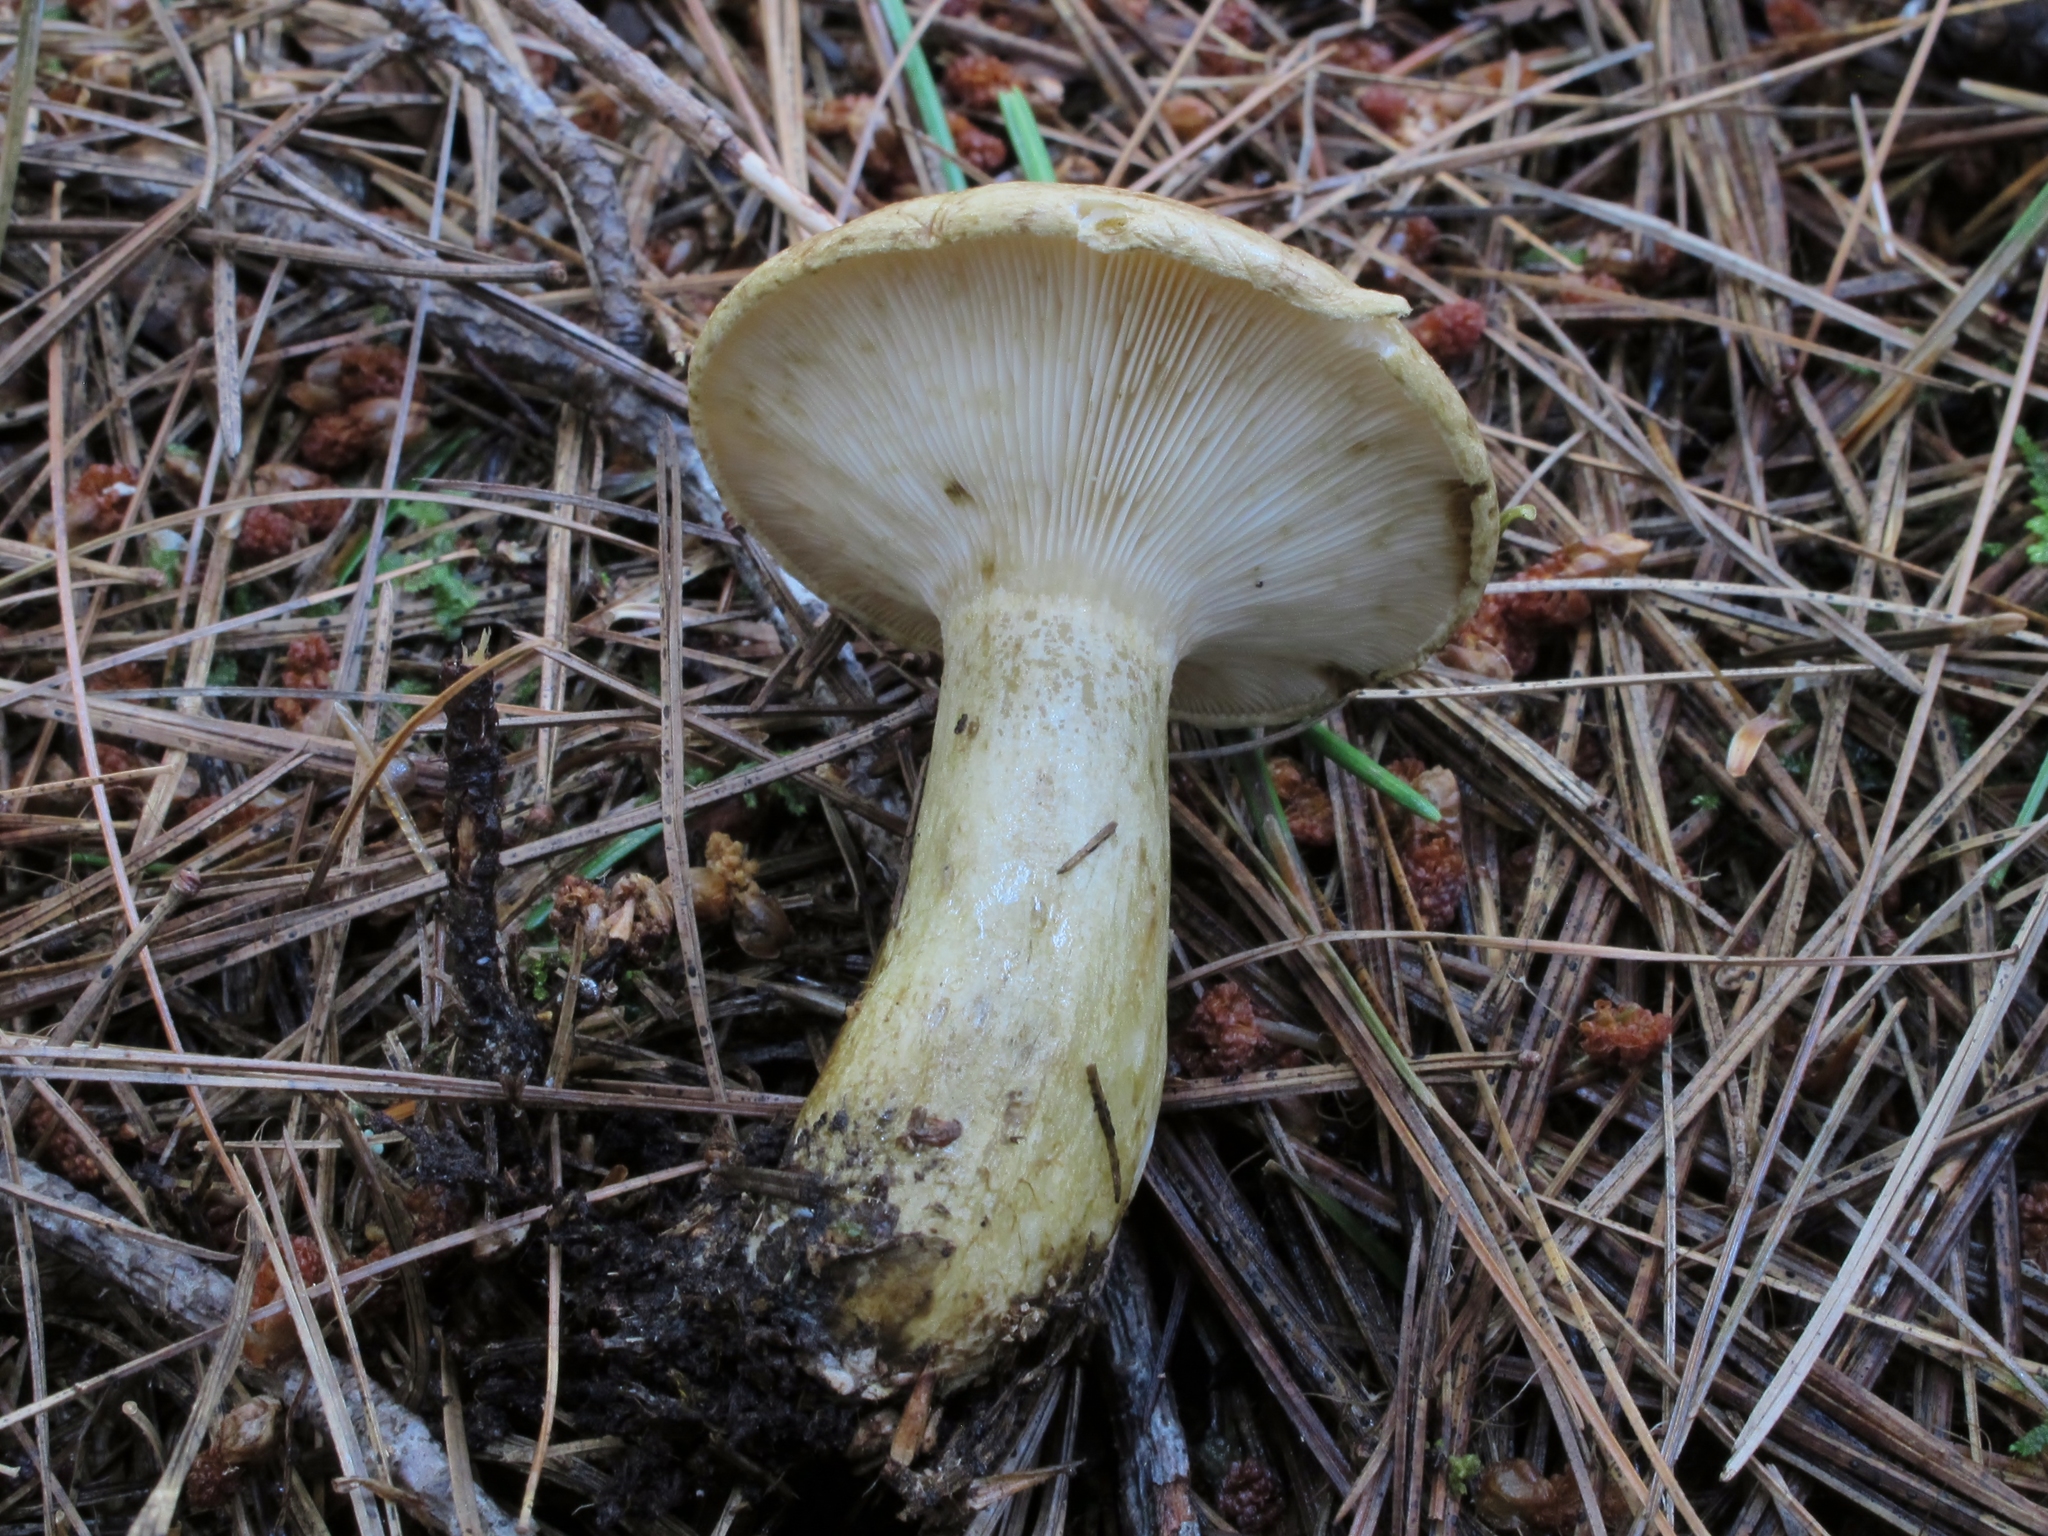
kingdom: Fungi
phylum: Basidiomycota
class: Agaricomycetes
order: Russulales
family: Russulaceae
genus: Lactarius
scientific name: Lactarius sordidus
